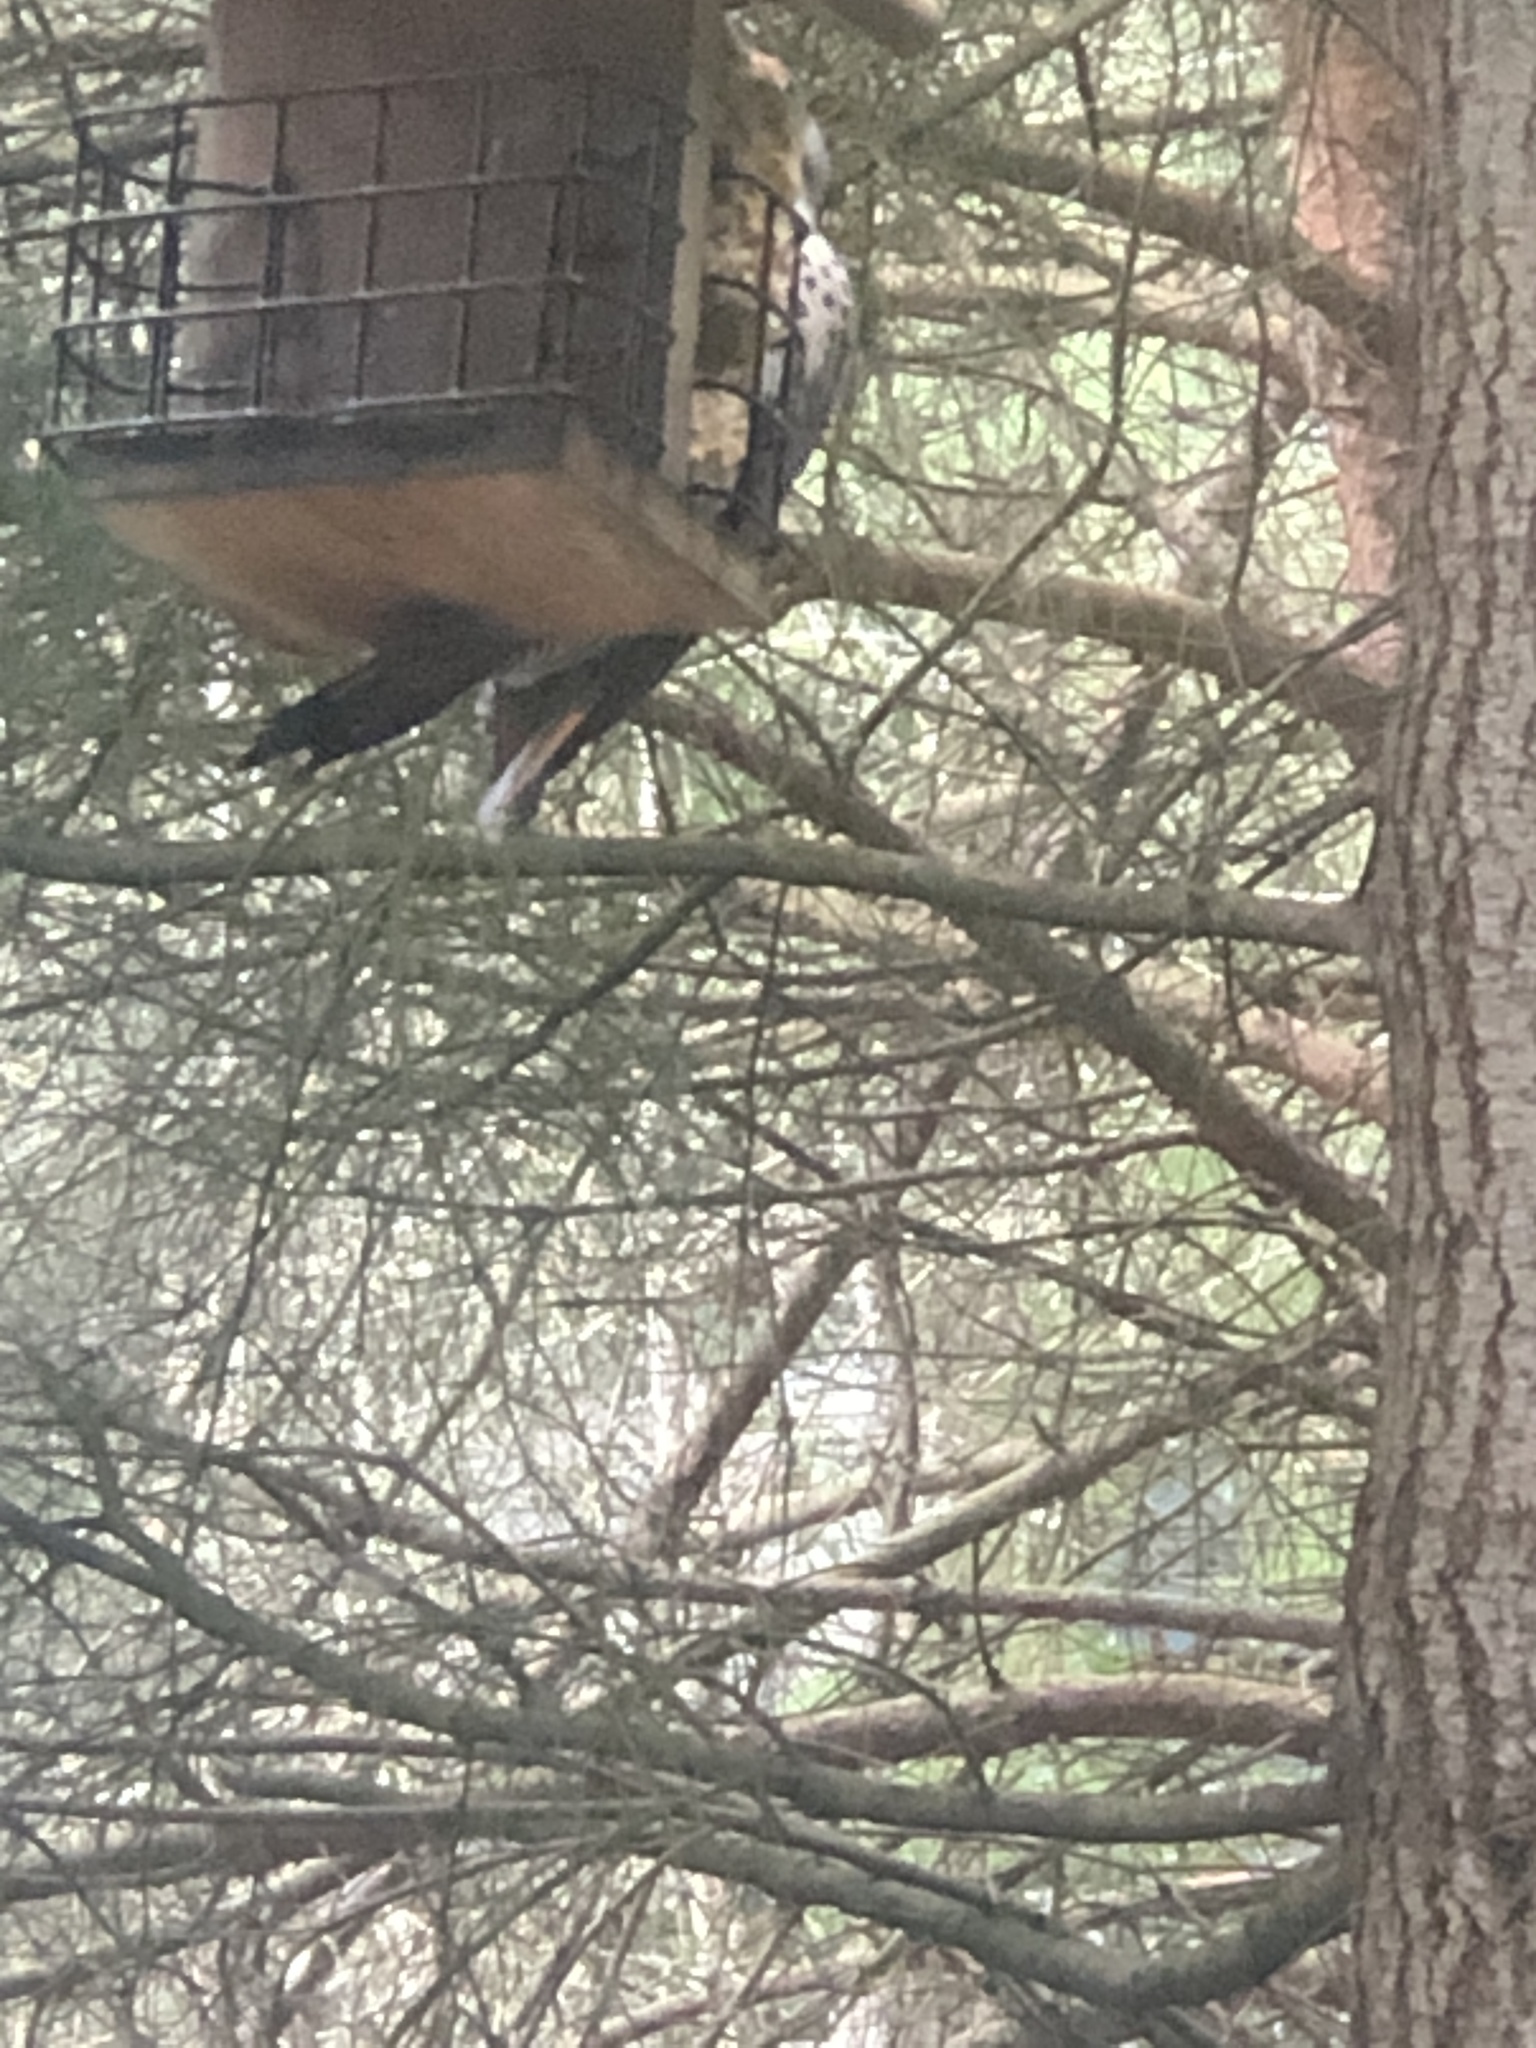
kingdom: Animalia
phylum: Chordata
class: Aves
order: Piciformes
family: Picidae
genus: Colaptes
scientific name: Colaptes auratus
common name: Northern flicker
